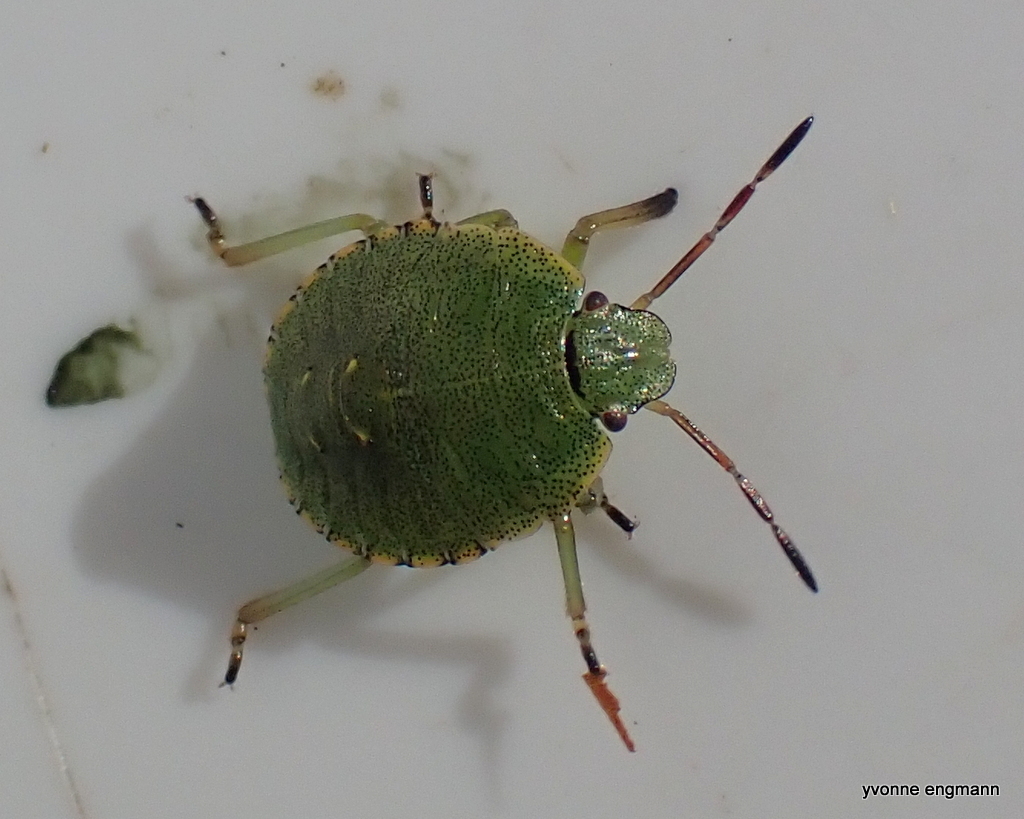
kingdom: Animalia
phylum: Arthropoda
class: Insecta
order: Hemiptera
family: Pentatomidae
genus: Palomena
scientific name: Palomena prasina
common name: Green shieldbug
